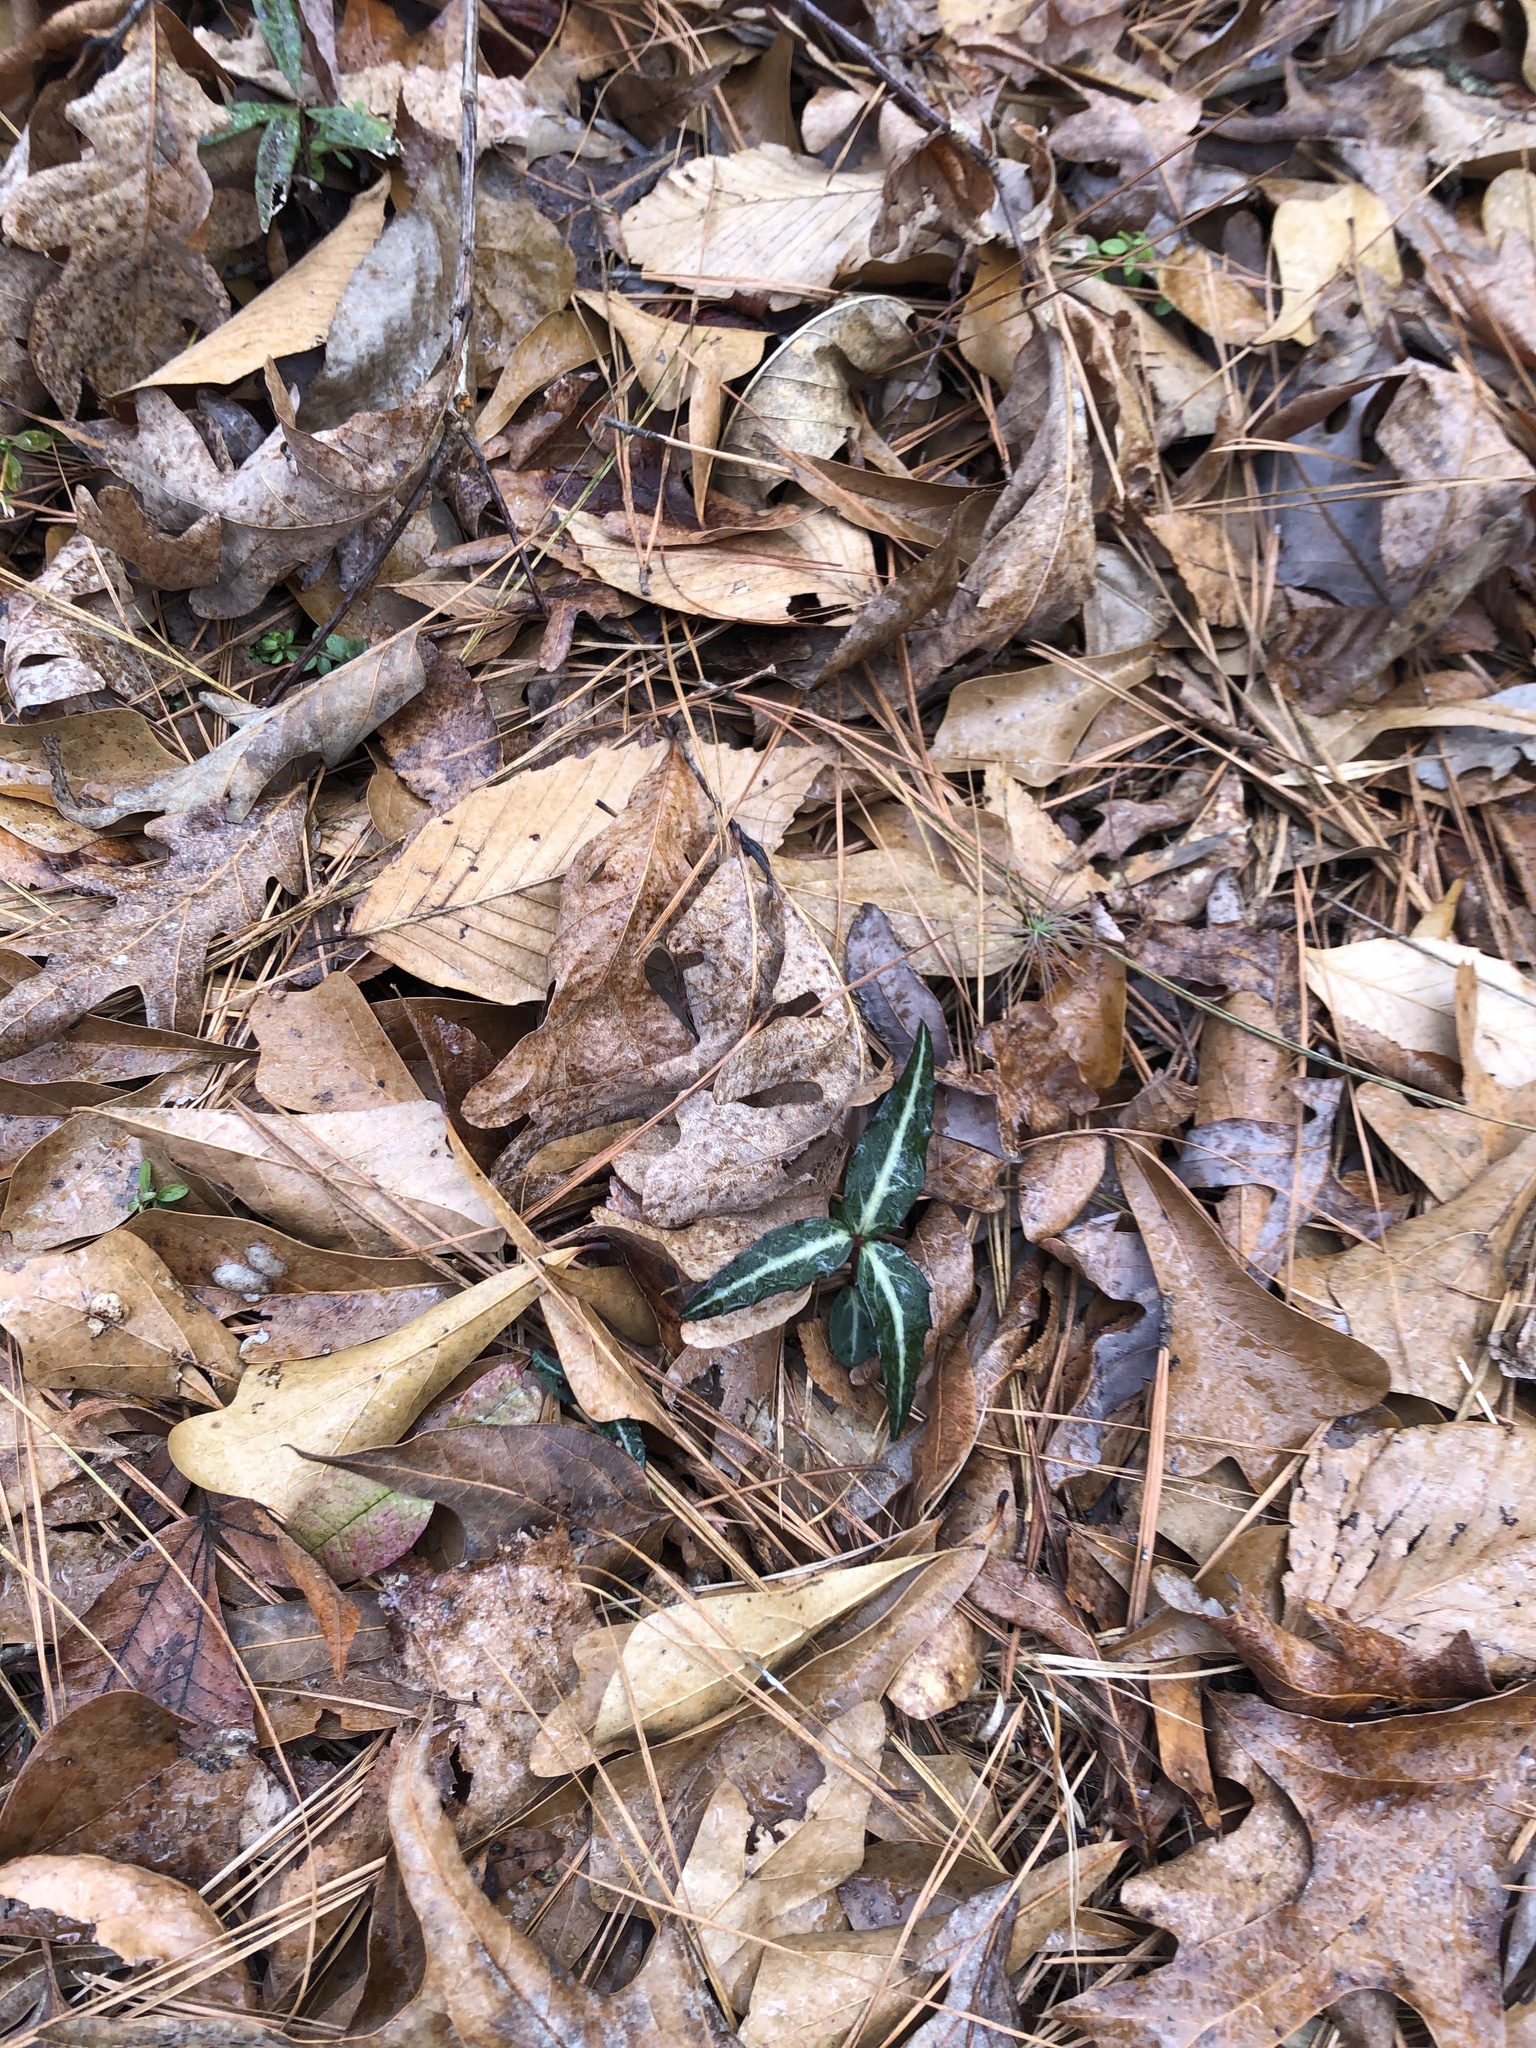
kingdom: Plantae
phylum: Tracheophyta
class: Magnoliopsida
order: Ericales
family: Ericaceae
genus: Chimaphila
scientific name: Chimaphila maculata
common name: Spotted pipsissewa
